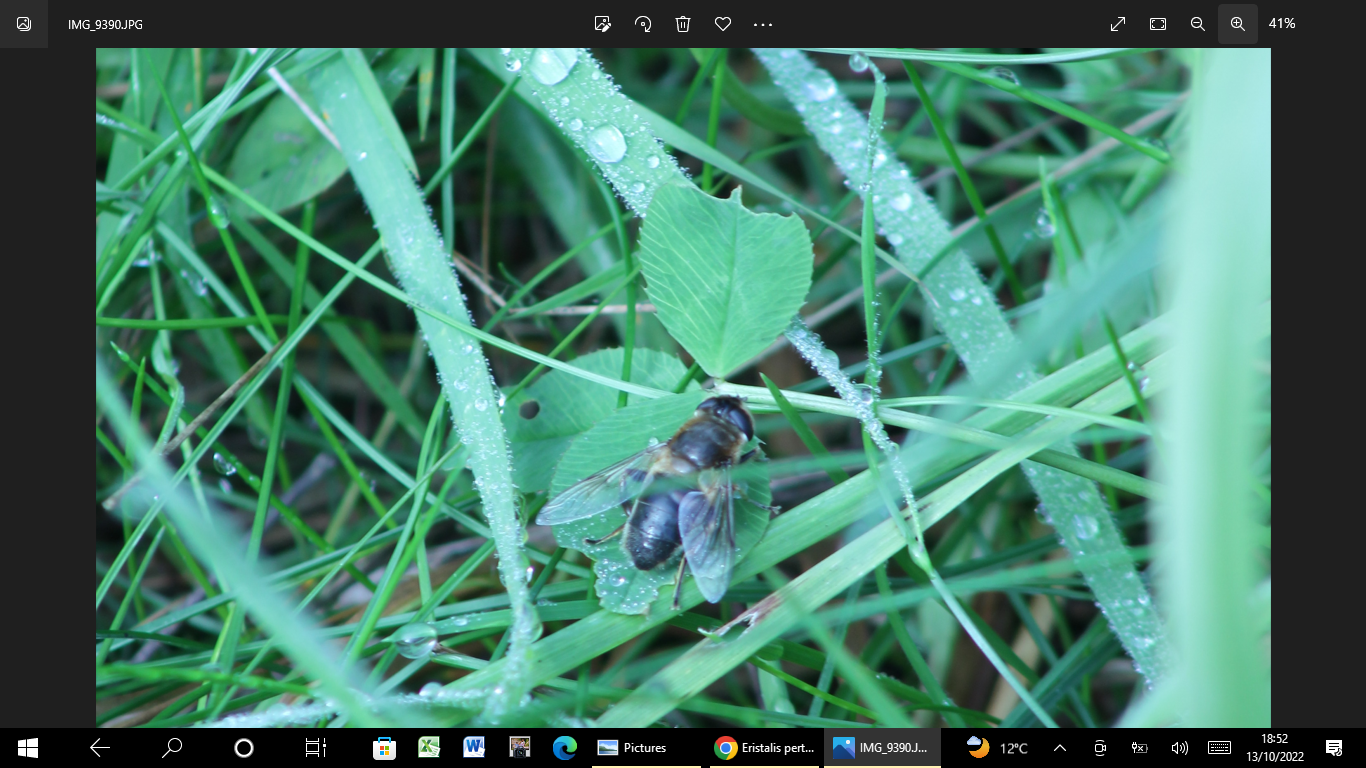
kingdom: Animalia
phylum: Arthropoda
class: Insecta
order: Diptera
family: Syrphidae
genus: Eristalis
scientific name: Eristalis tenax
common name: Drone fly
